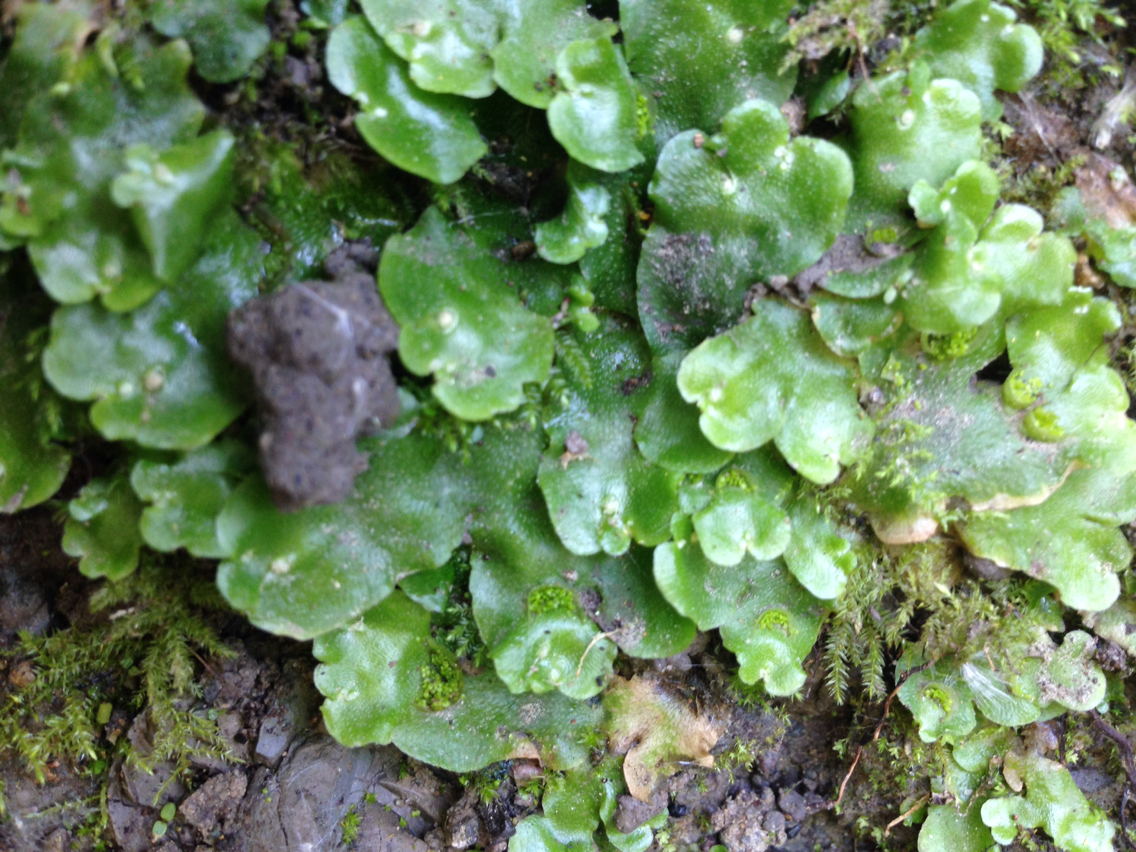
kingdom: Plantae
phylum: Marchantiophyta
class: Marchantiopsida
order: Lunulariales
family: Lunulariaceae
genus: Lunularia
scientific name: Lunularia cruciata
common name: Crescent-cup liverwort
